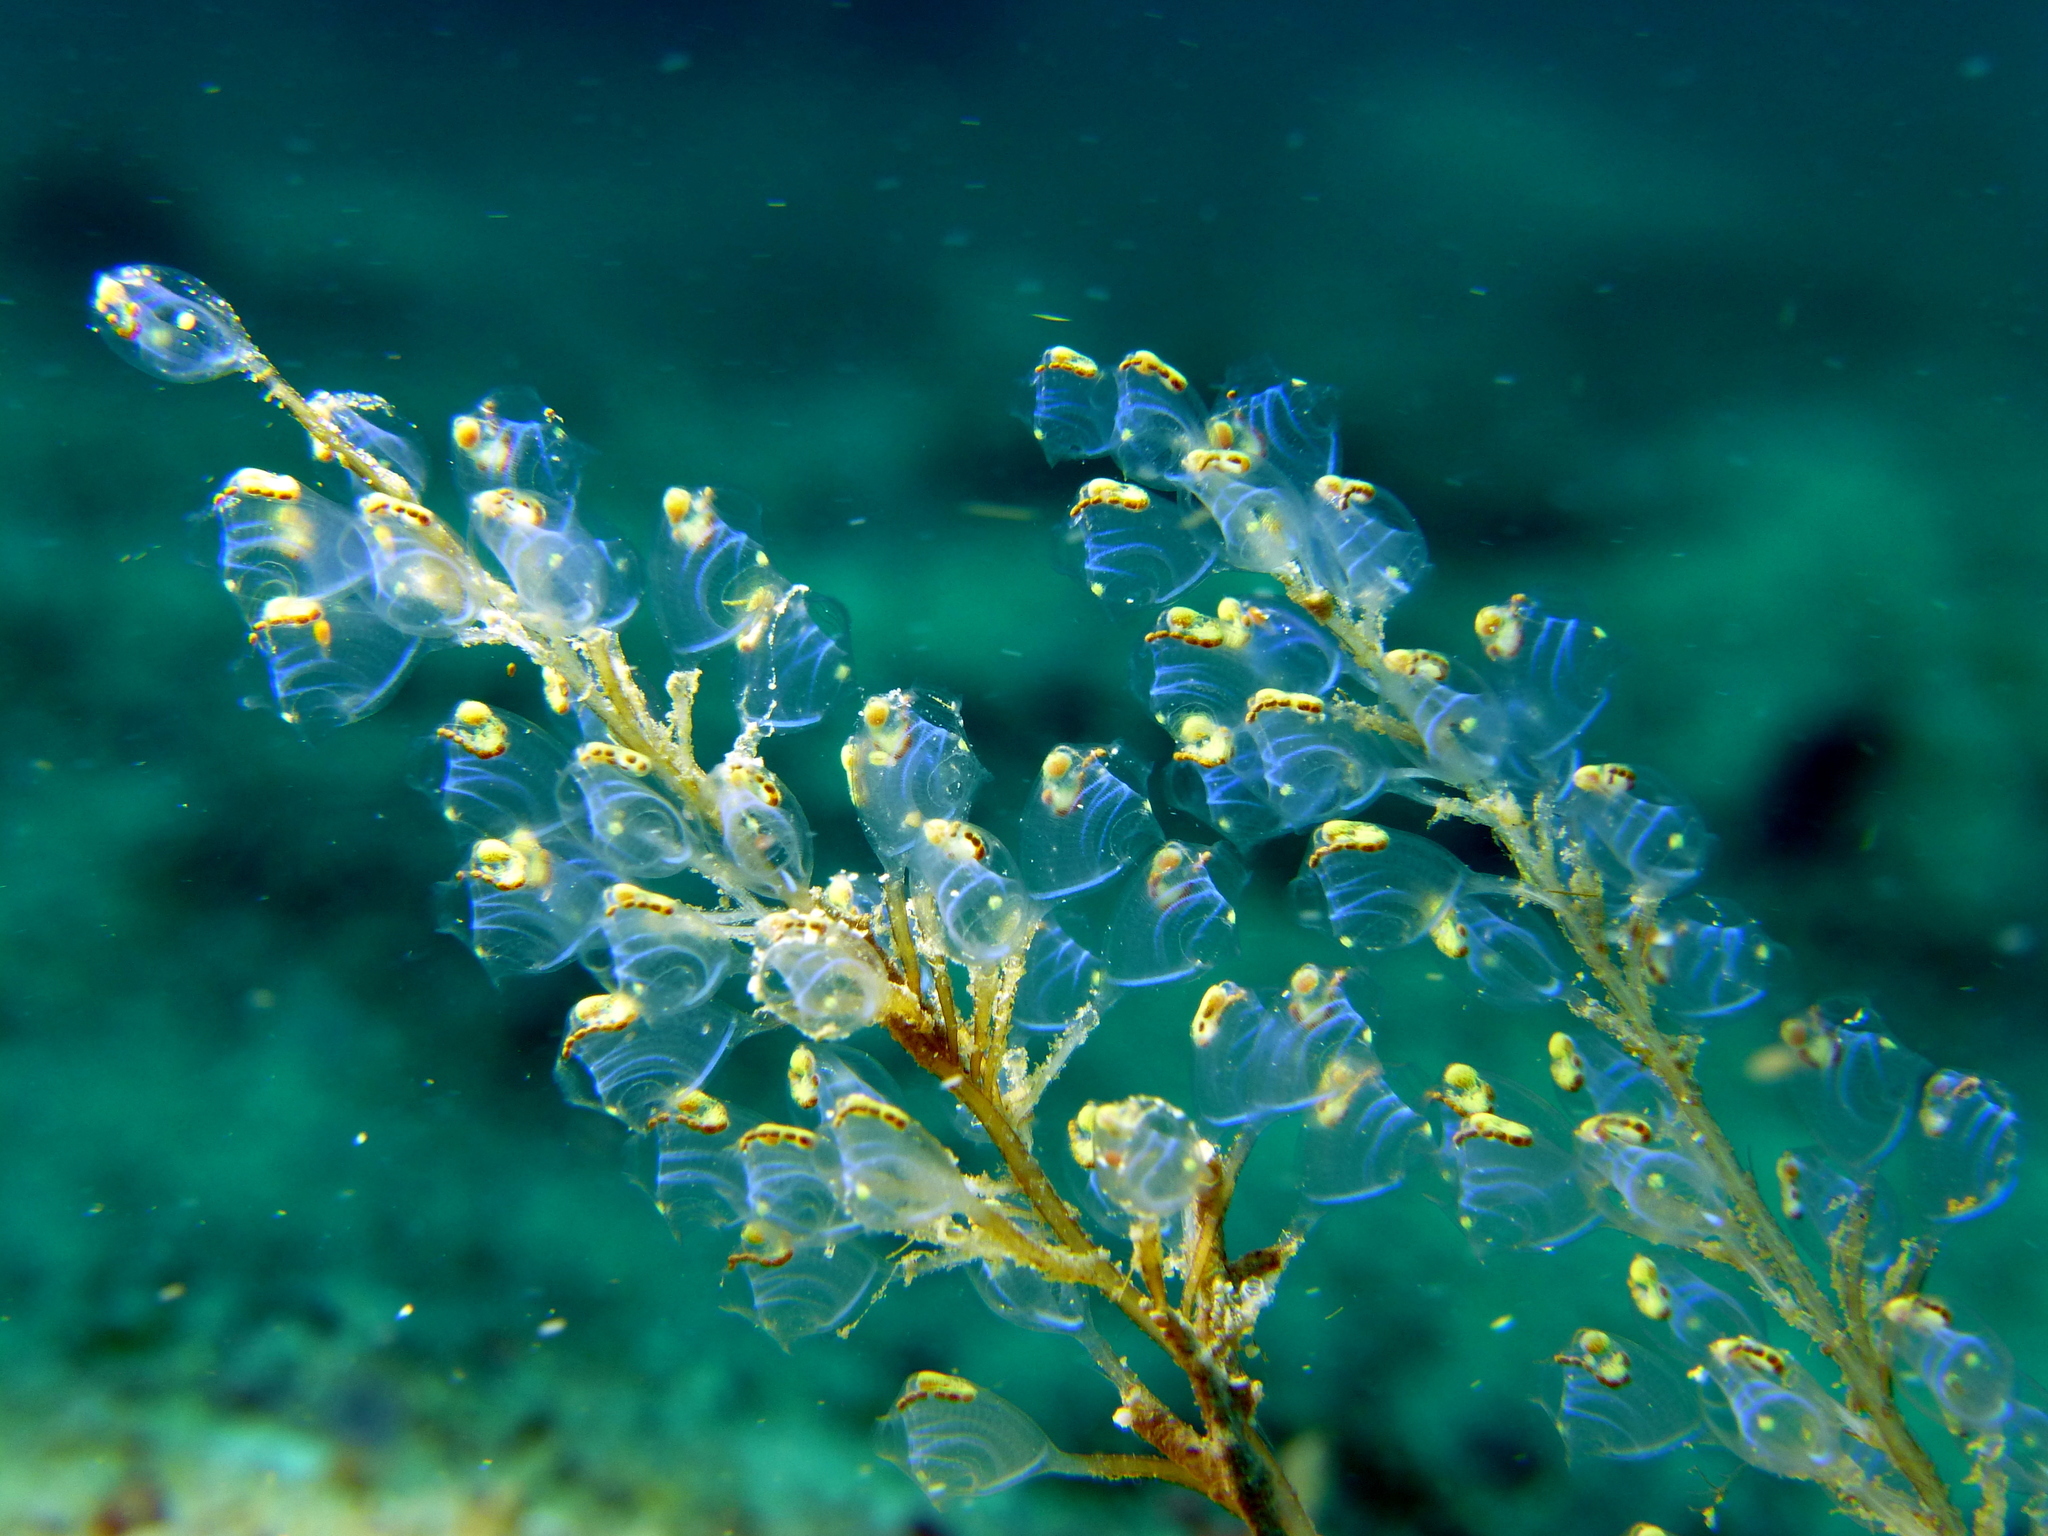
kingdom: Animalia
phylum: Chordata
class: Ascidiacea
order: Phlebobranchia
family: Perophoridae
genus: Perophora
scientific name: Perophora namei
